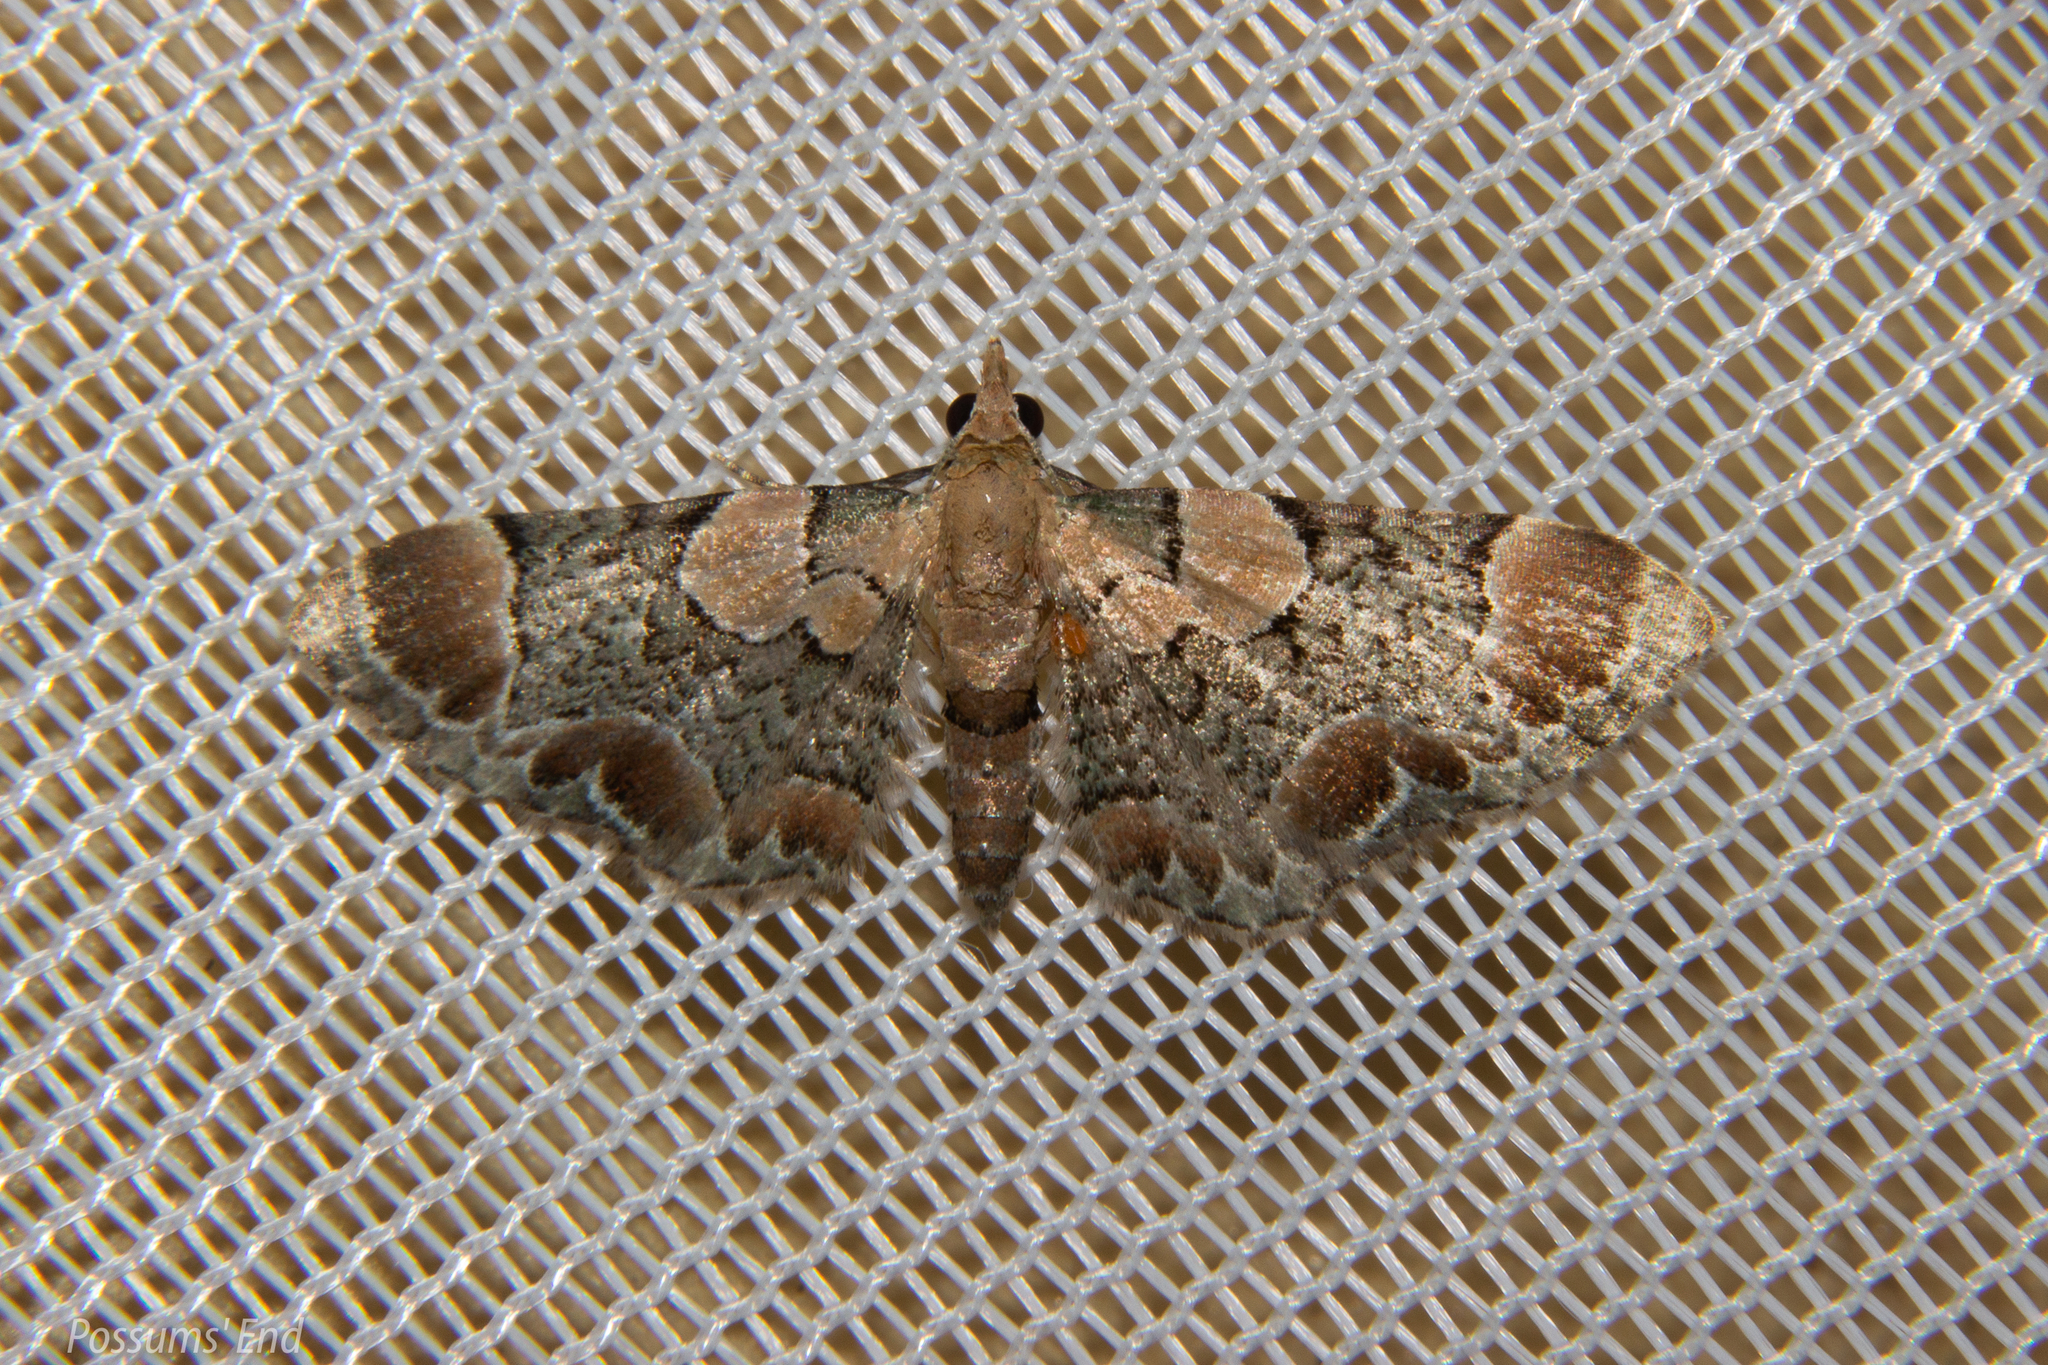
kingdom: Animalia
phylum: Arthropoda
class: Insecta
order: Lepidoptera
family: Geometridae
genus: Chloroclystis
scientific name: Chloroclystis
